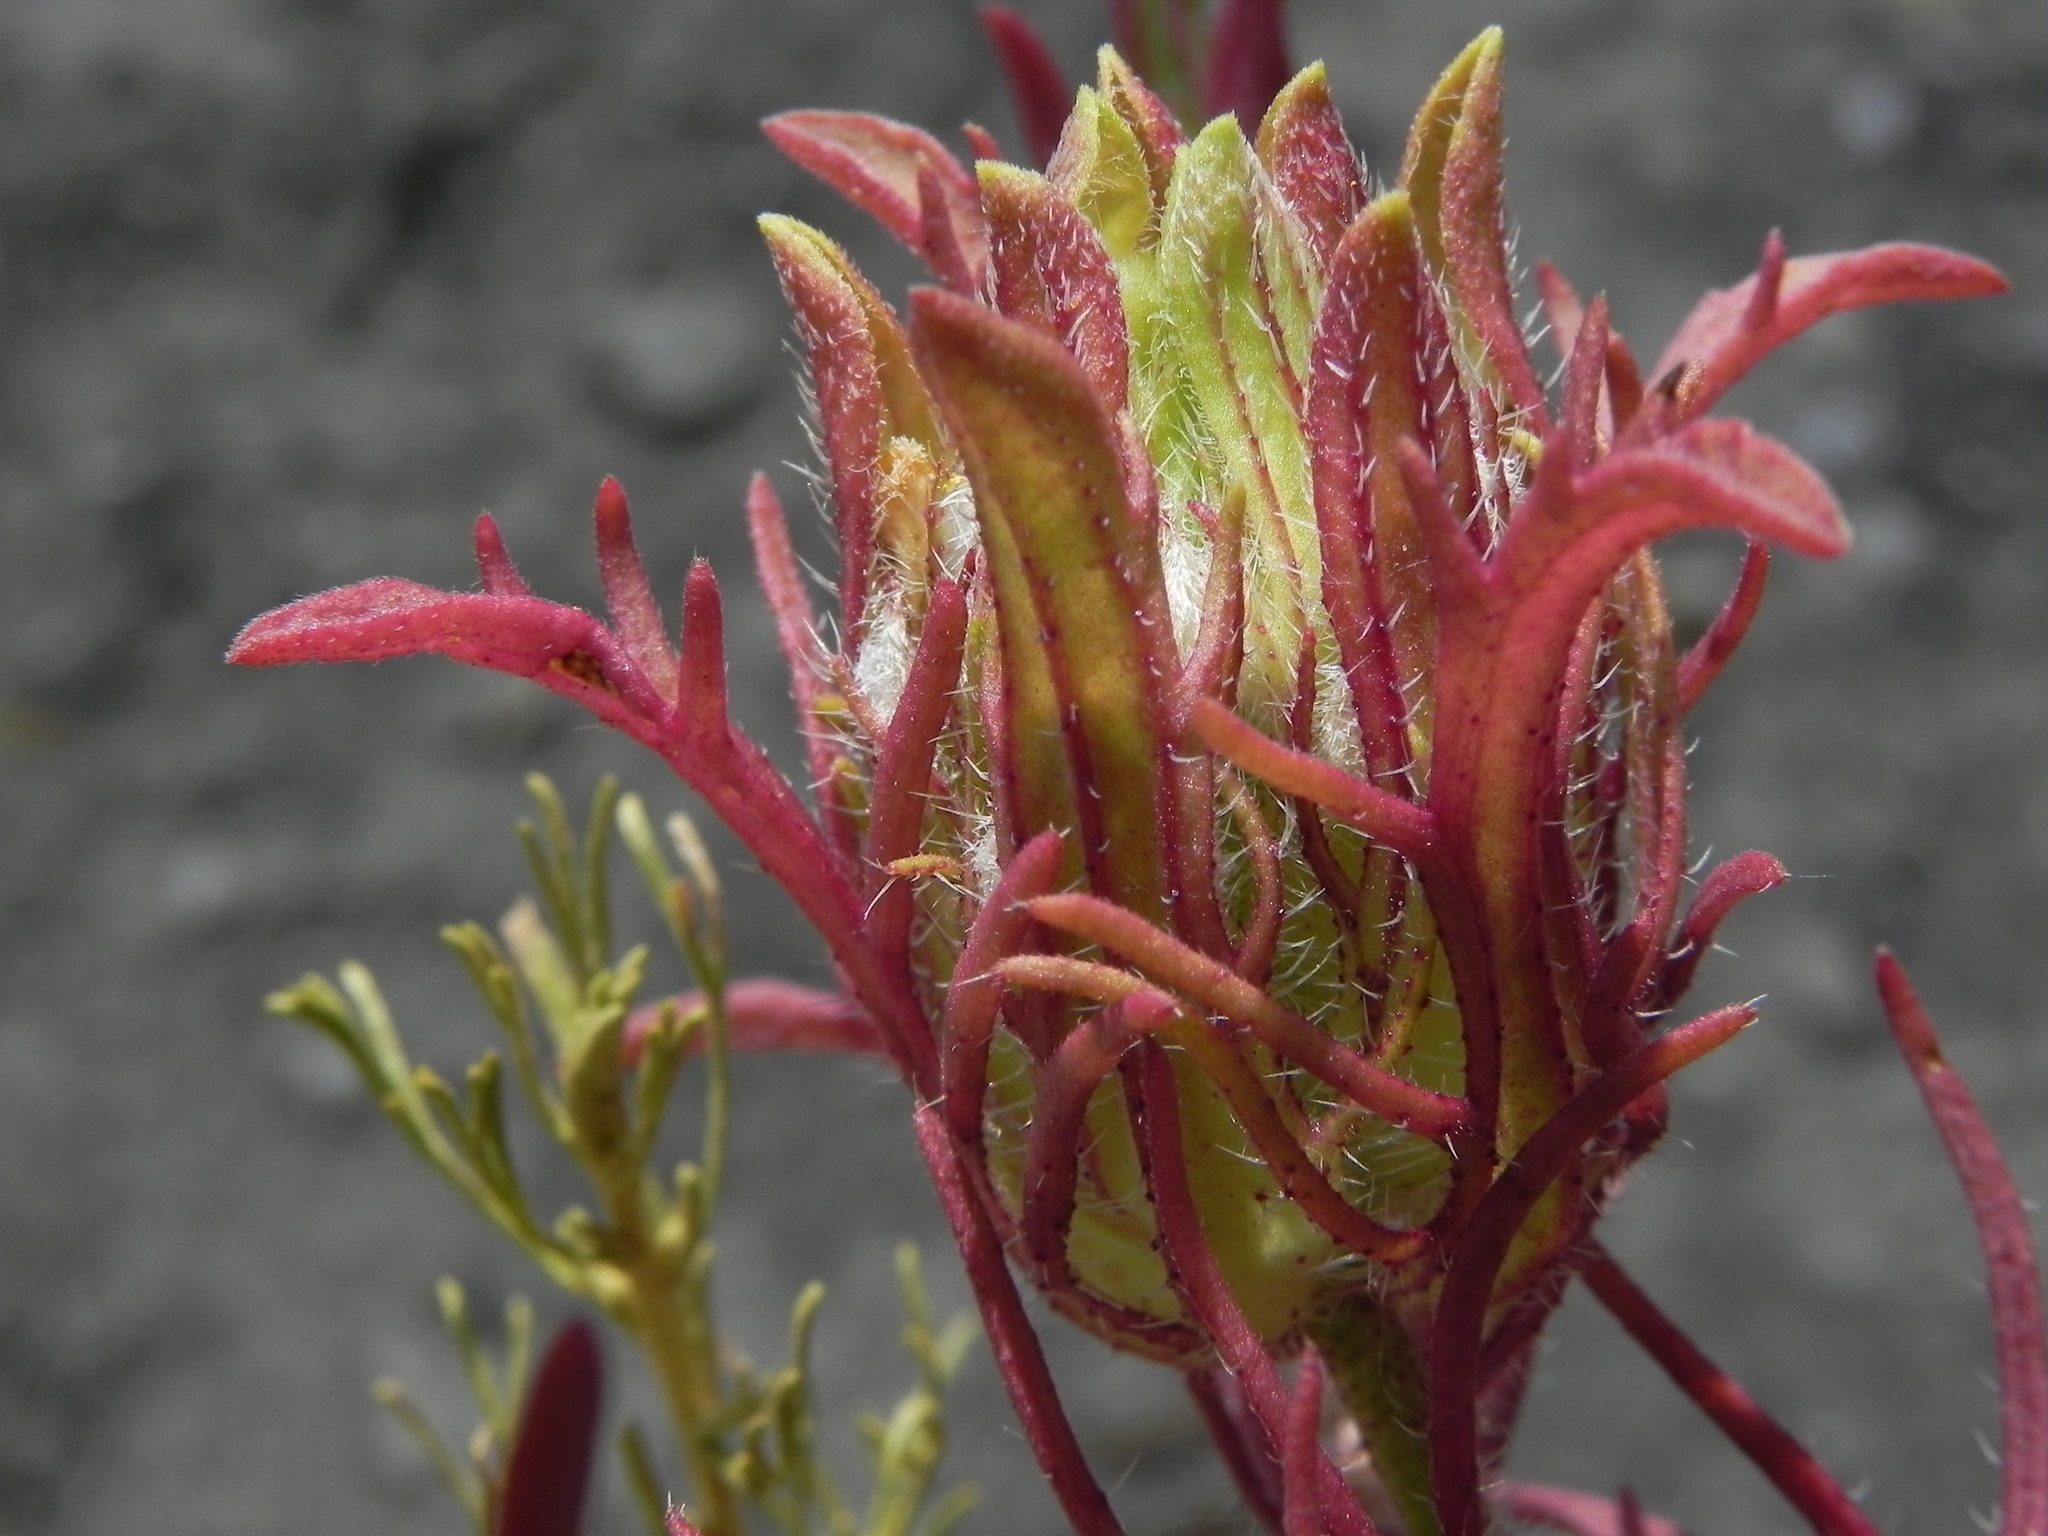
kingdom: Plantae
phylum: Tracheophyta
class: Magnoliopsida
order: Lamiales
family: Orobanchaceae
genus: Dicranostegia
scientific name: Dicranostegia orcuttiana
